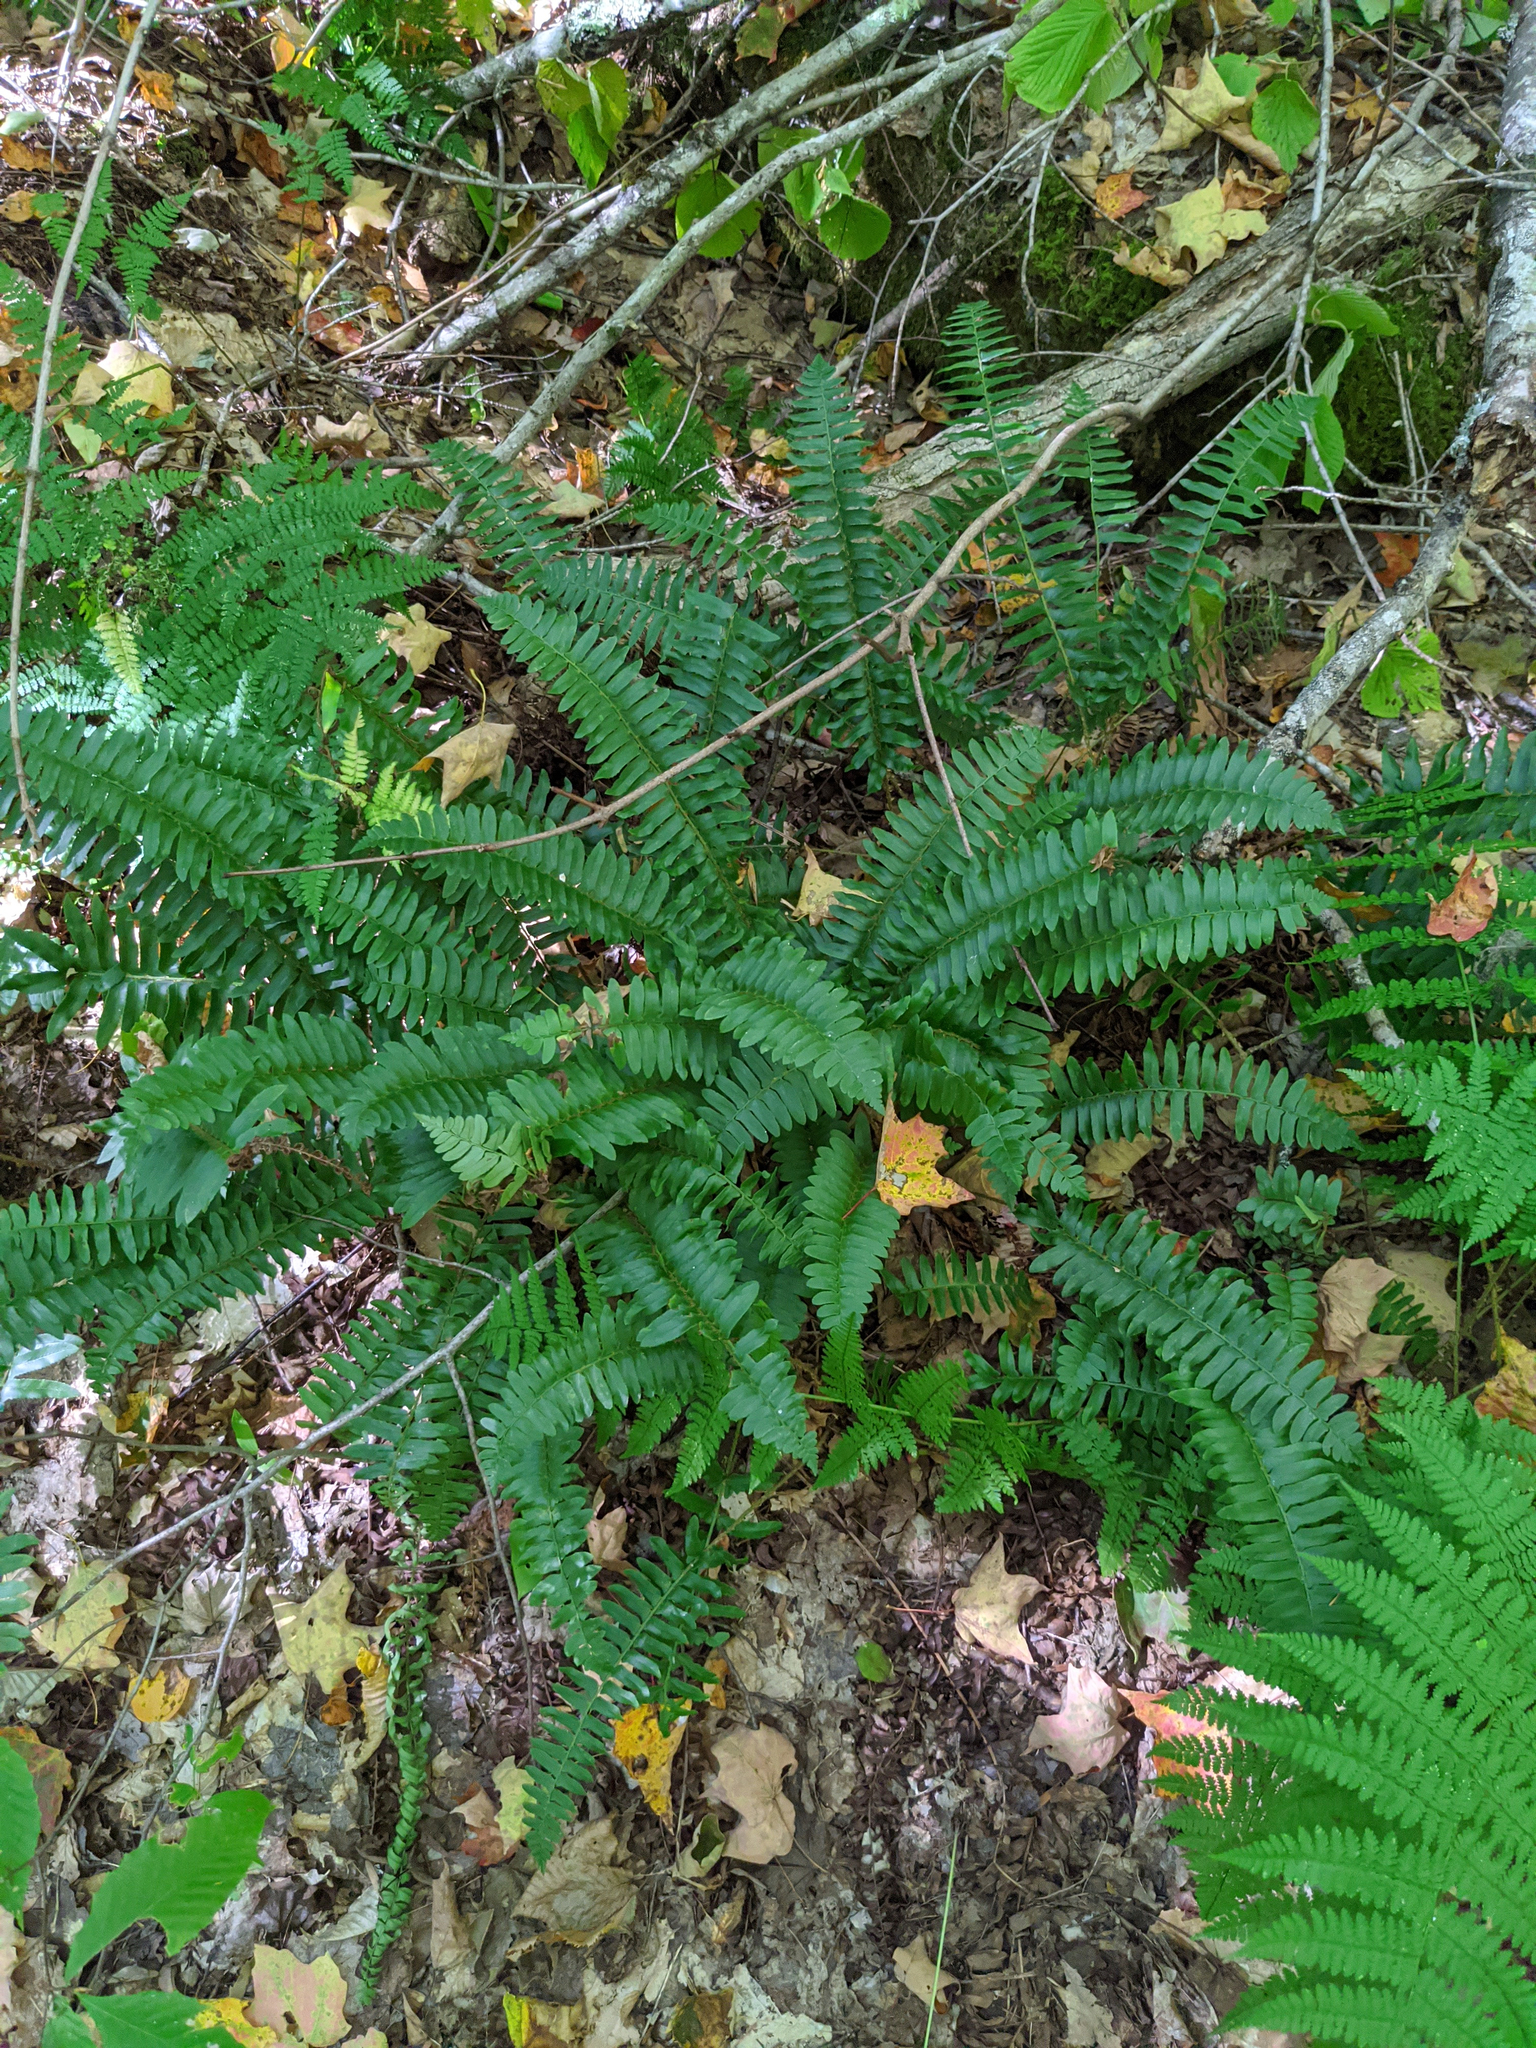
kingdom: Plantae
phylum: Tracheophyta
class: Polypodiopsida
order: Polypodiales
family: Dryopteridaceae
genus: Polystichum
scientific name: Polystichum acrostichoides
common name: Christmas fern
